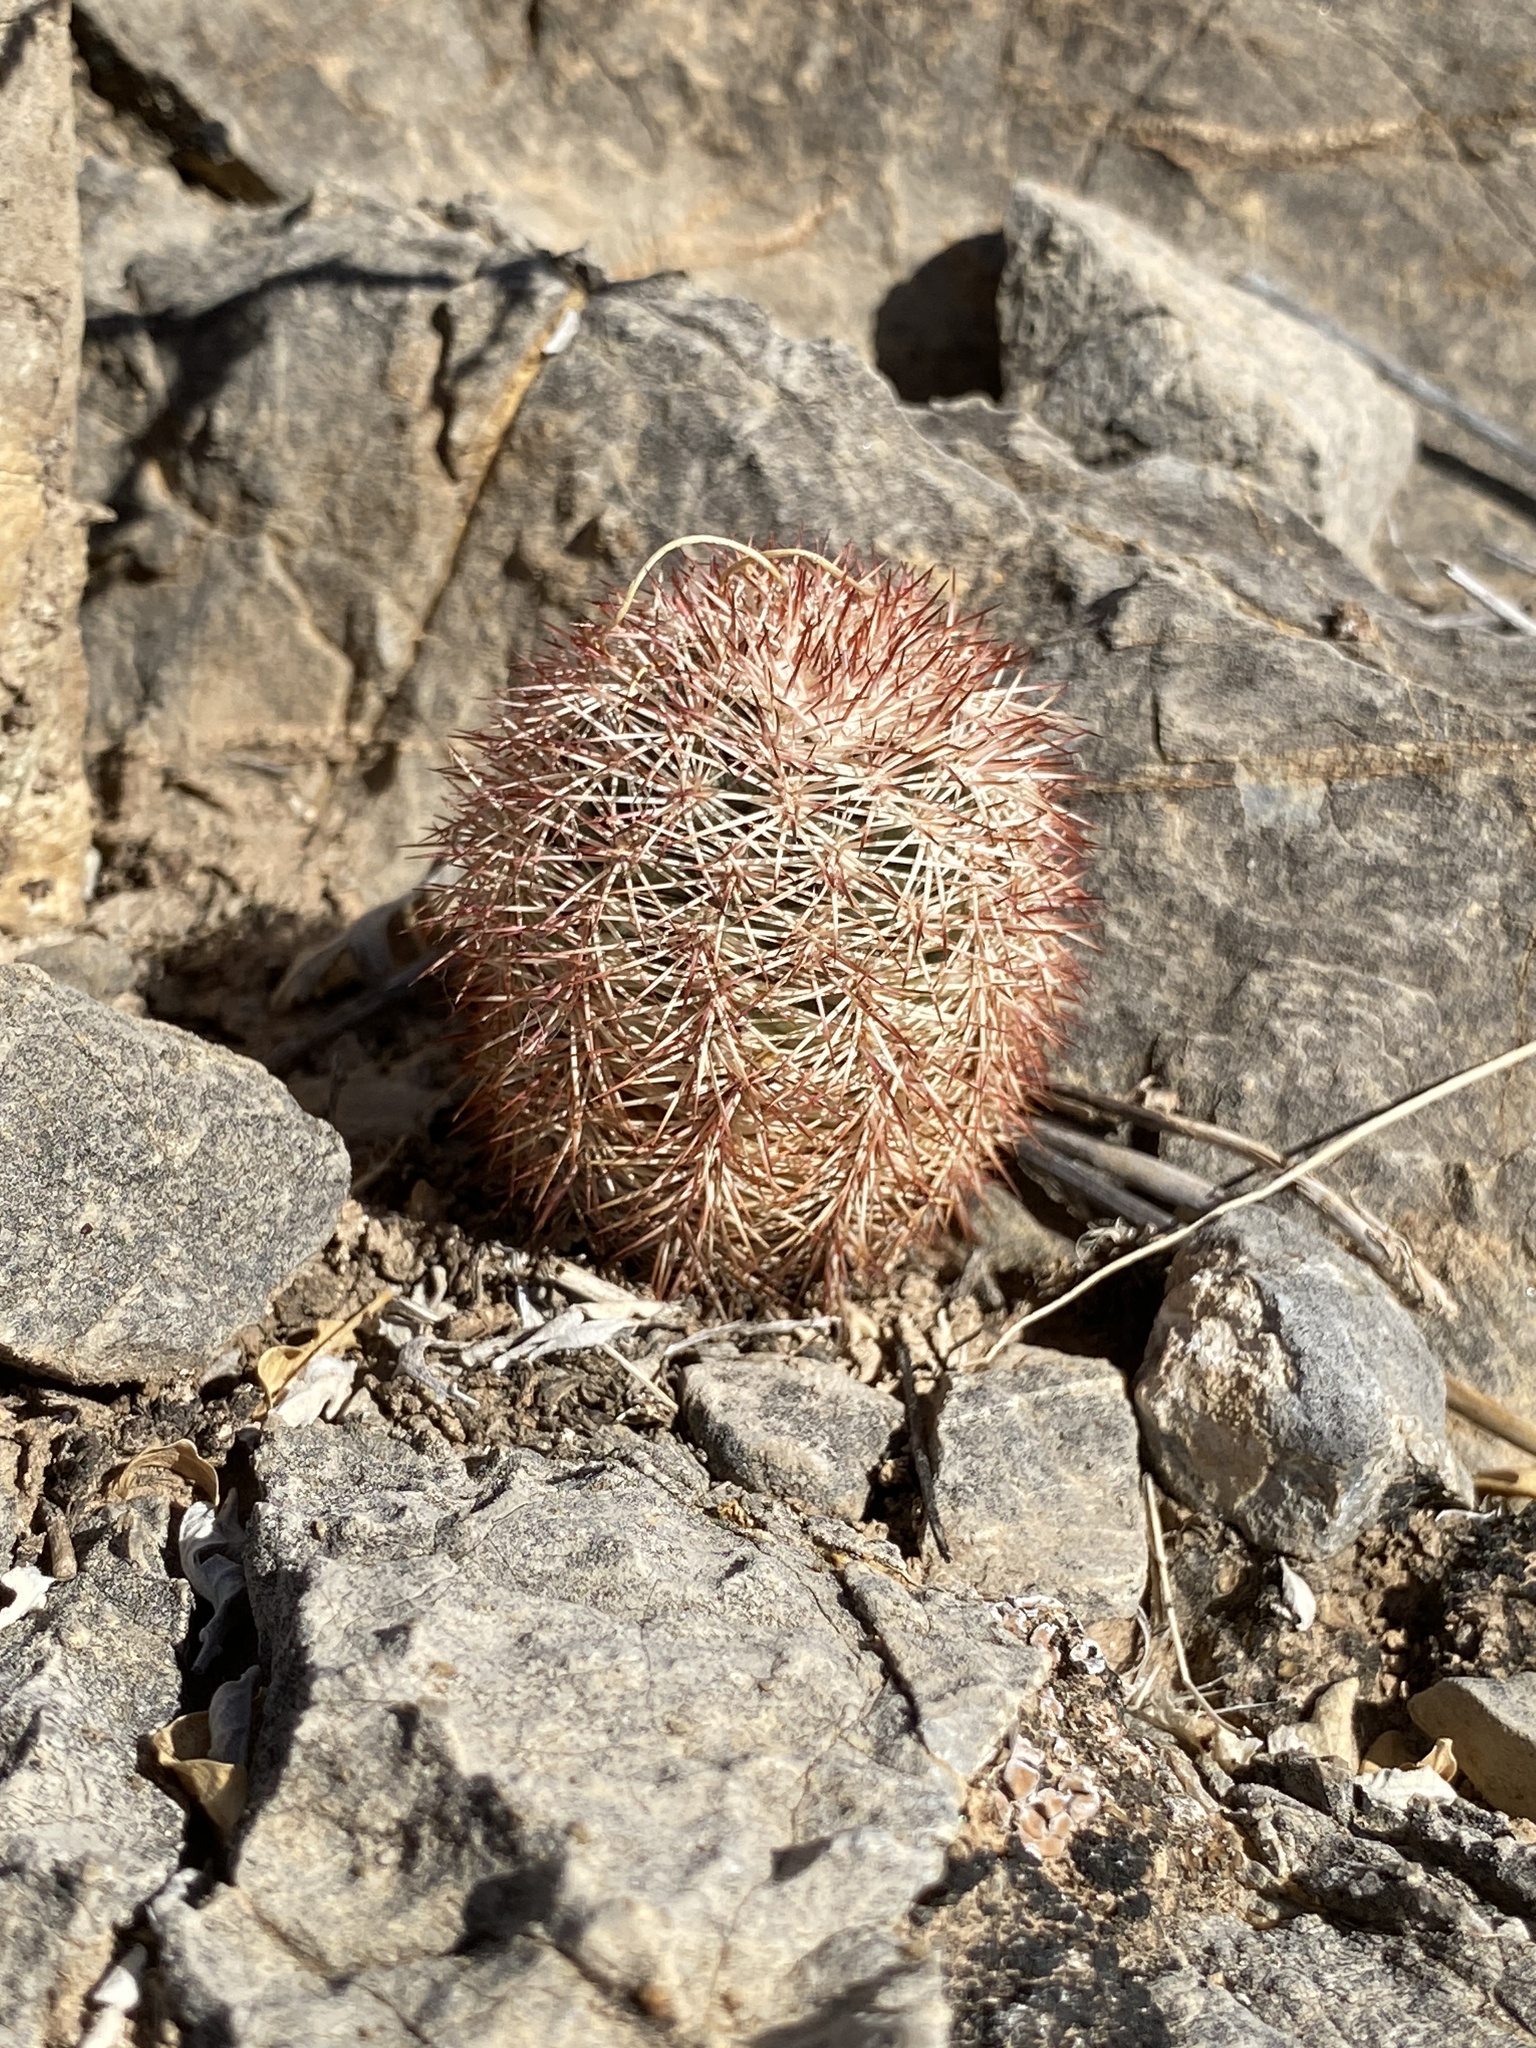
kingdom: Plantae
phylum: Tracheophyta
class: Magnoliopsida
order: Caryophyllales
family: Cactaceae
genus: Echinocereus
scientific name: Echinocereus dasyacanthus
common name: Spiny hedgehog cactus
